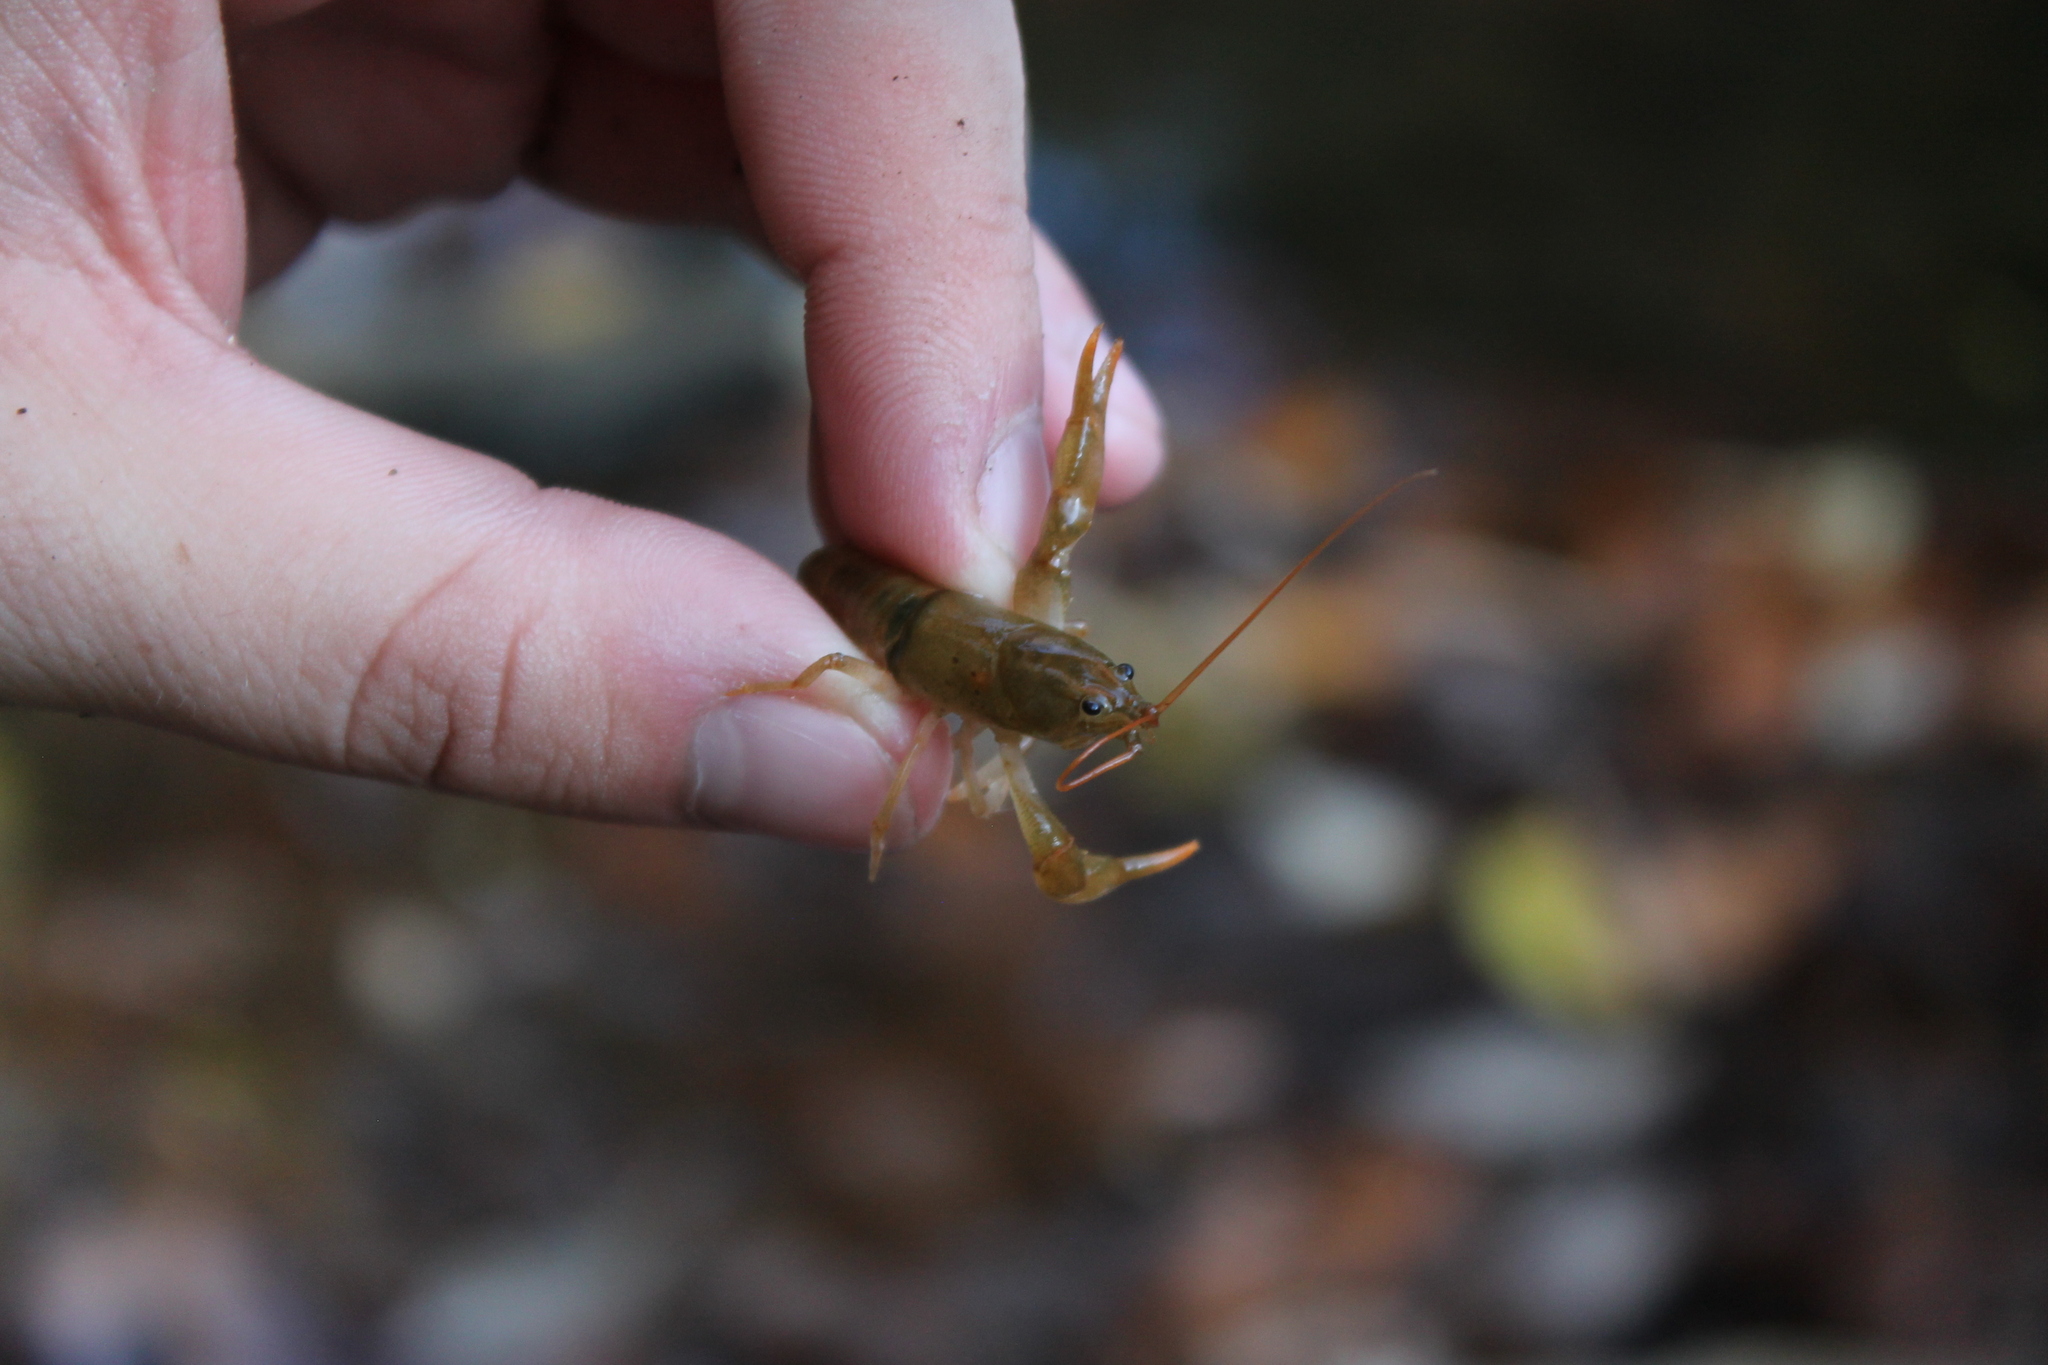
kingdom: Animalia
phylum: Arthropoda
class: Malacostraca
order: Decapoda
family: Cambaridae
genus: Cambarus
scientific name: Cambarus rusticiformis
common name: Depression crayfish
